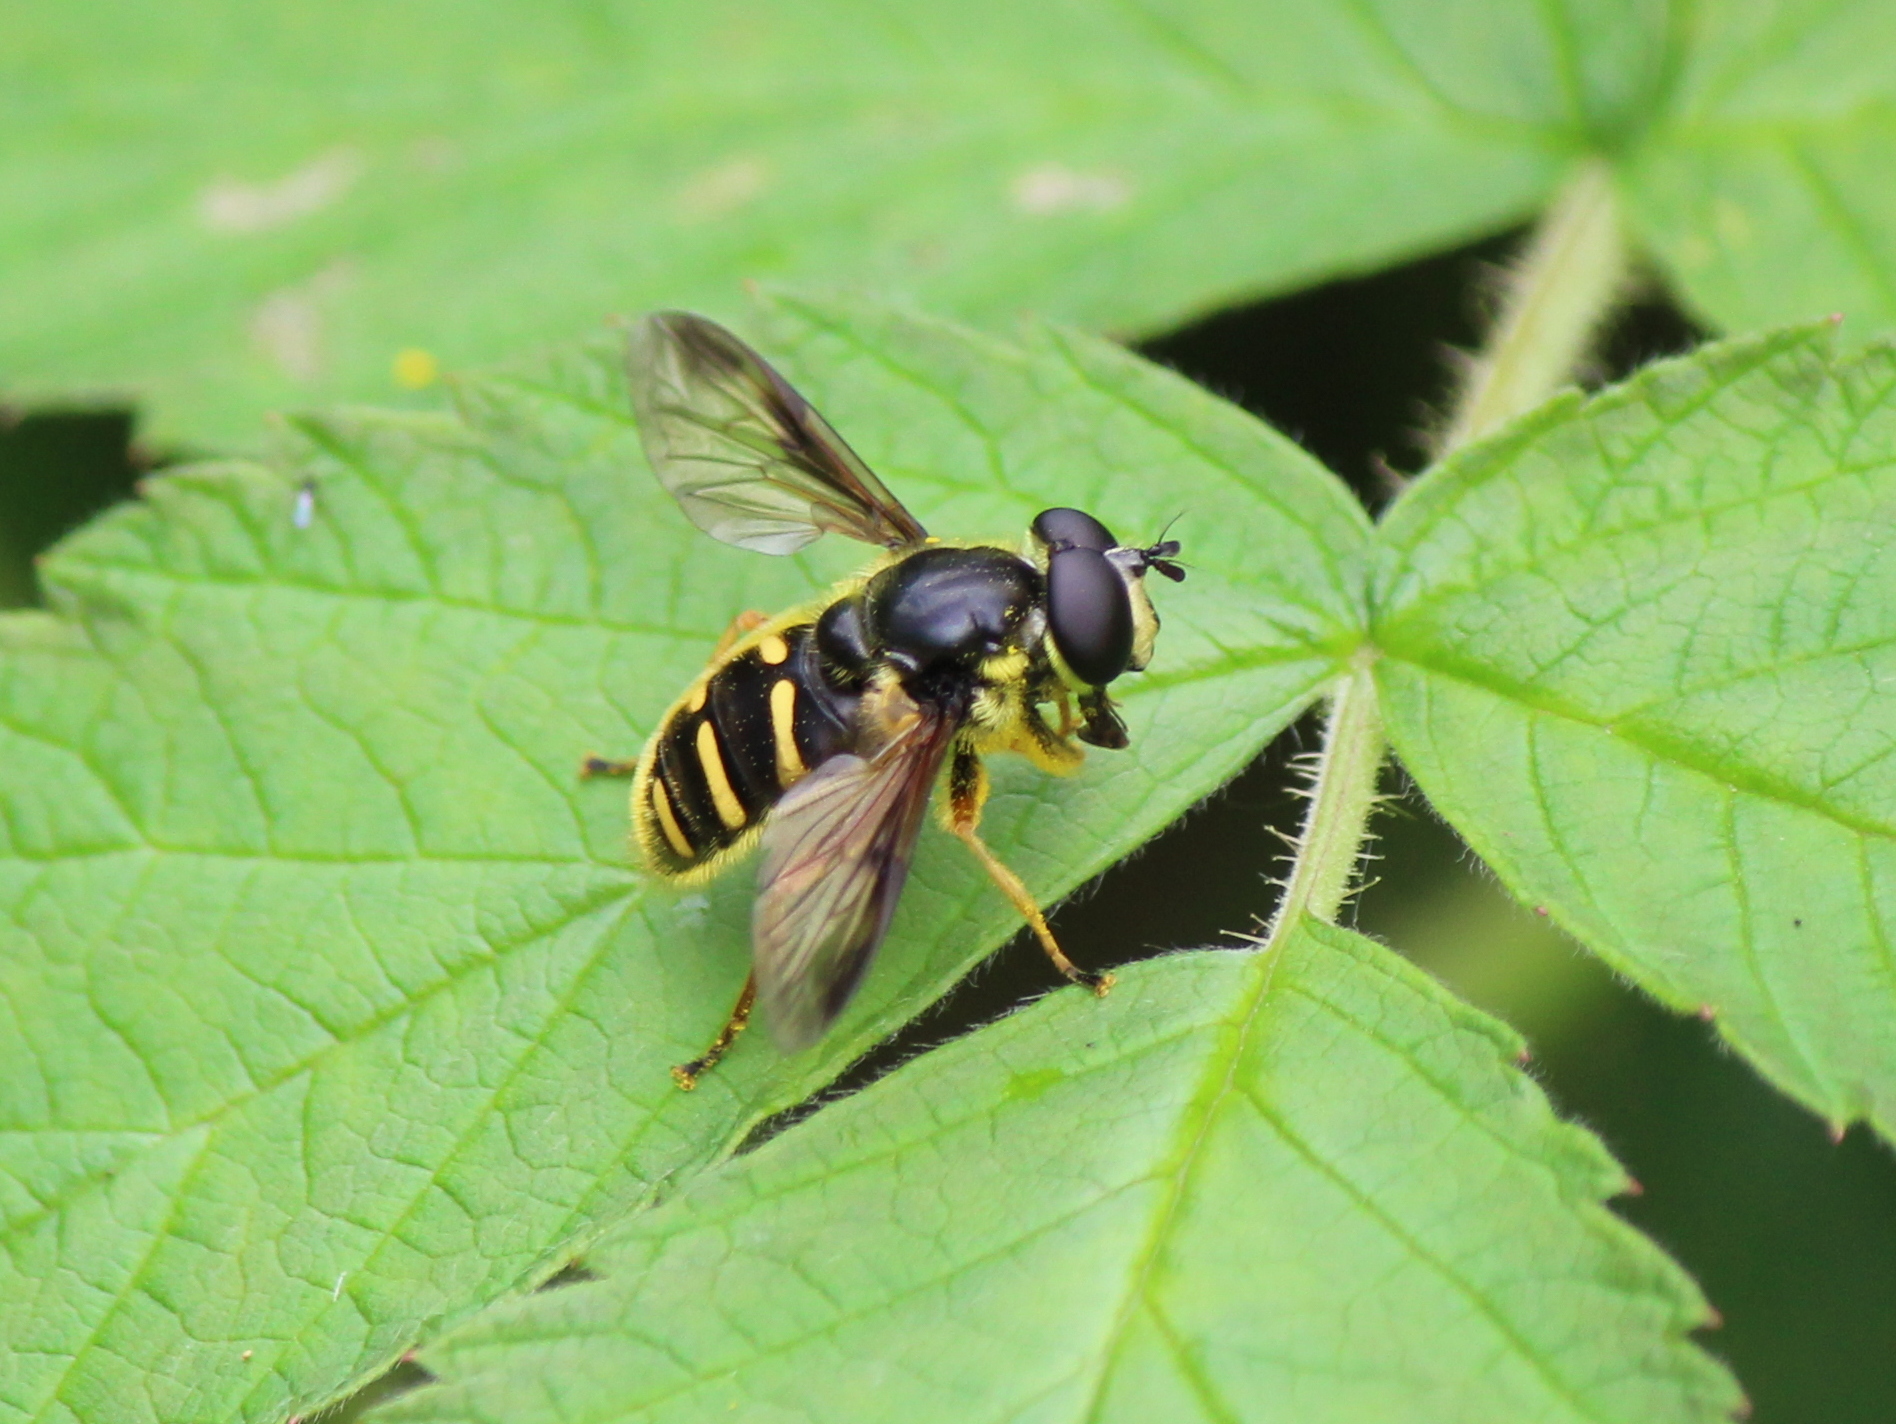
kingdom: Animalia
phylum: Arthropoda
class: Insecta
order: Diptera
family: Syrphidae
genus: Sericomyia
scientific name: Sericomyia chrysotoxoides
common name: Oblique-banded pond fly
